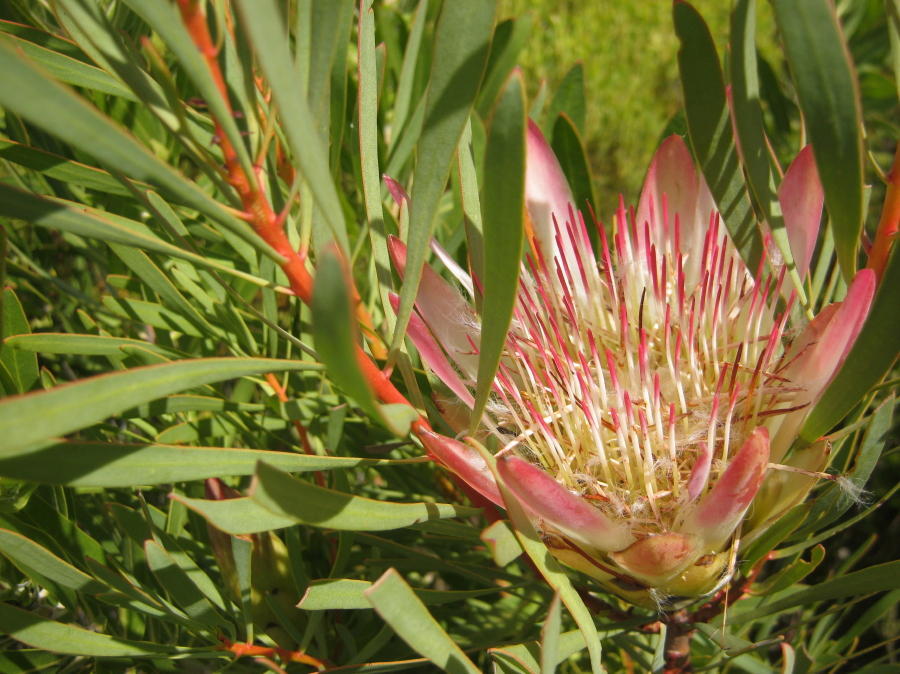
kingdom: Plantae
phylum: Tracheophyta
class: Magnoliopsida
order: Proteales
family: Proteaceae
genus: Protea
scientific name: Protea repens
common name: Sugarbush
